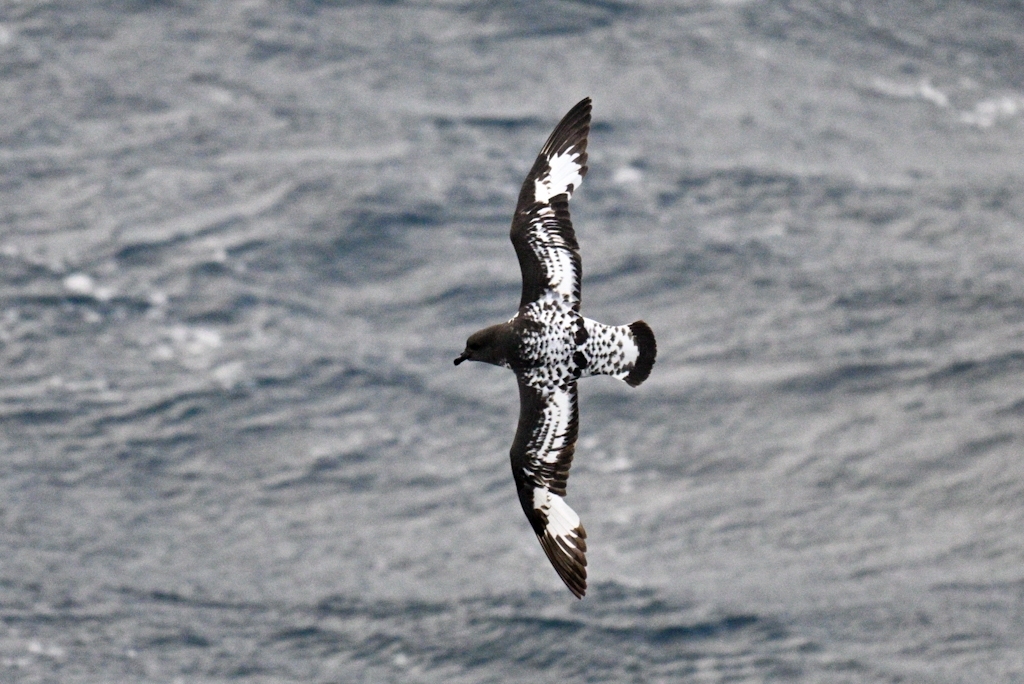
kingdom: Animalia
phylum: Chordata
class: Aves
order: Procellariiformes
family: Procellariidae
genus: Daption
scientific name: Daption capense
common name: Cape petrel
